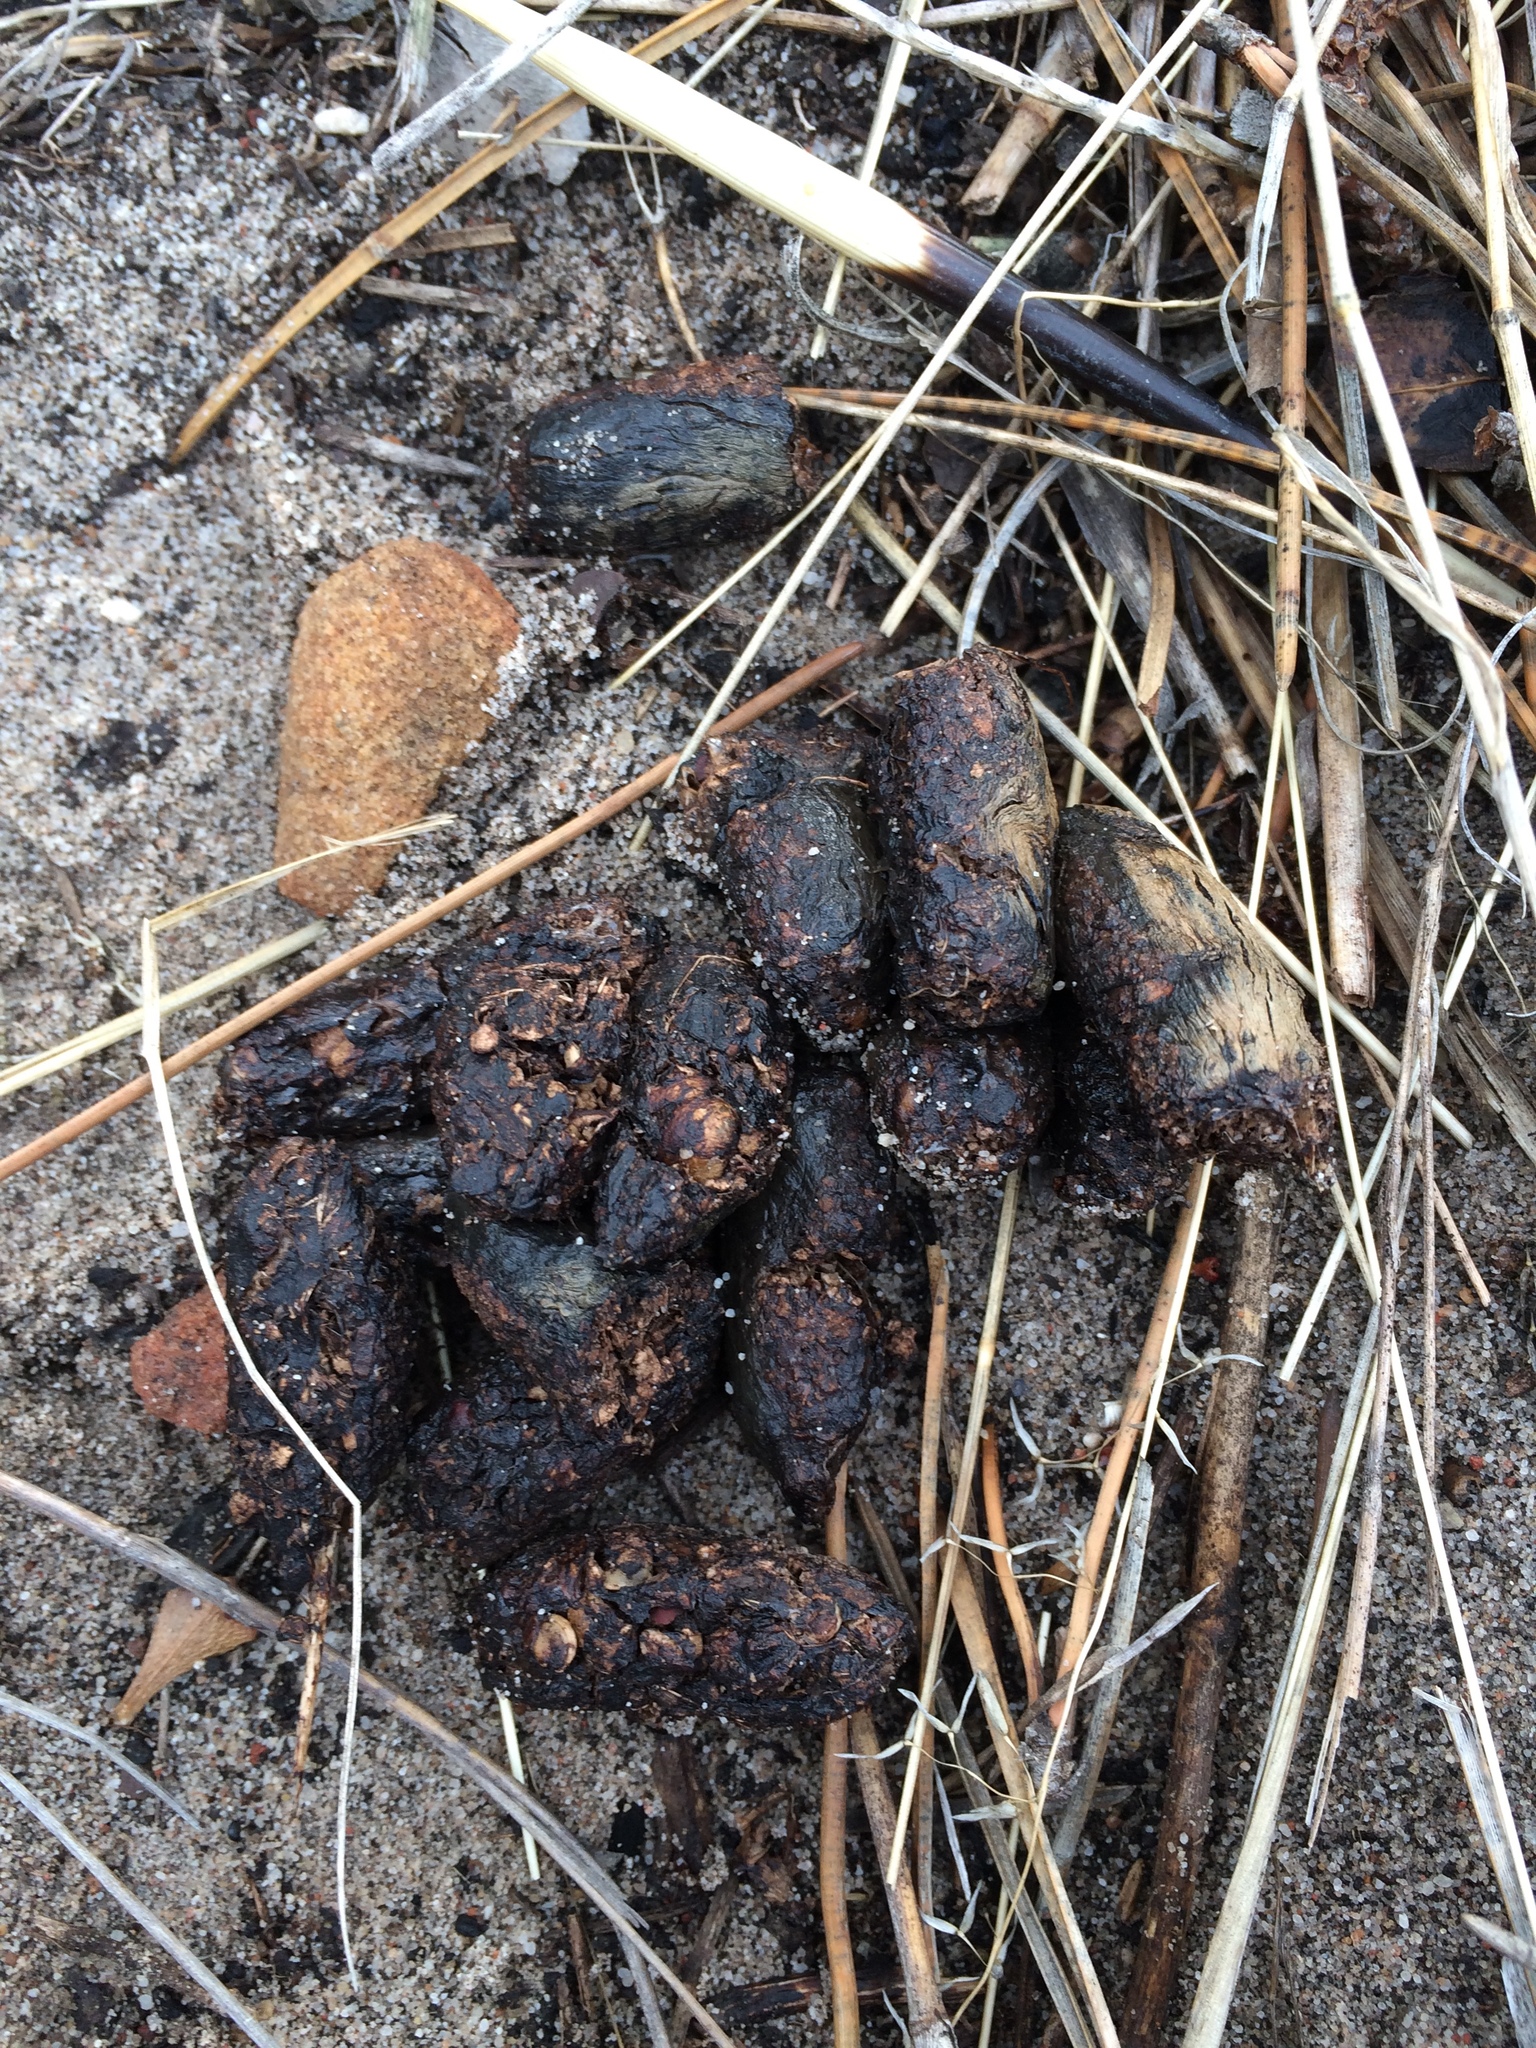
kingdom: Animalia
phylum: Chordata
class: Mammalia
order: Rodentia
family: Hystricidae
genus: Hystrix
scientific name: Hystrix africaeaustralis
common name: Cape porcupine
